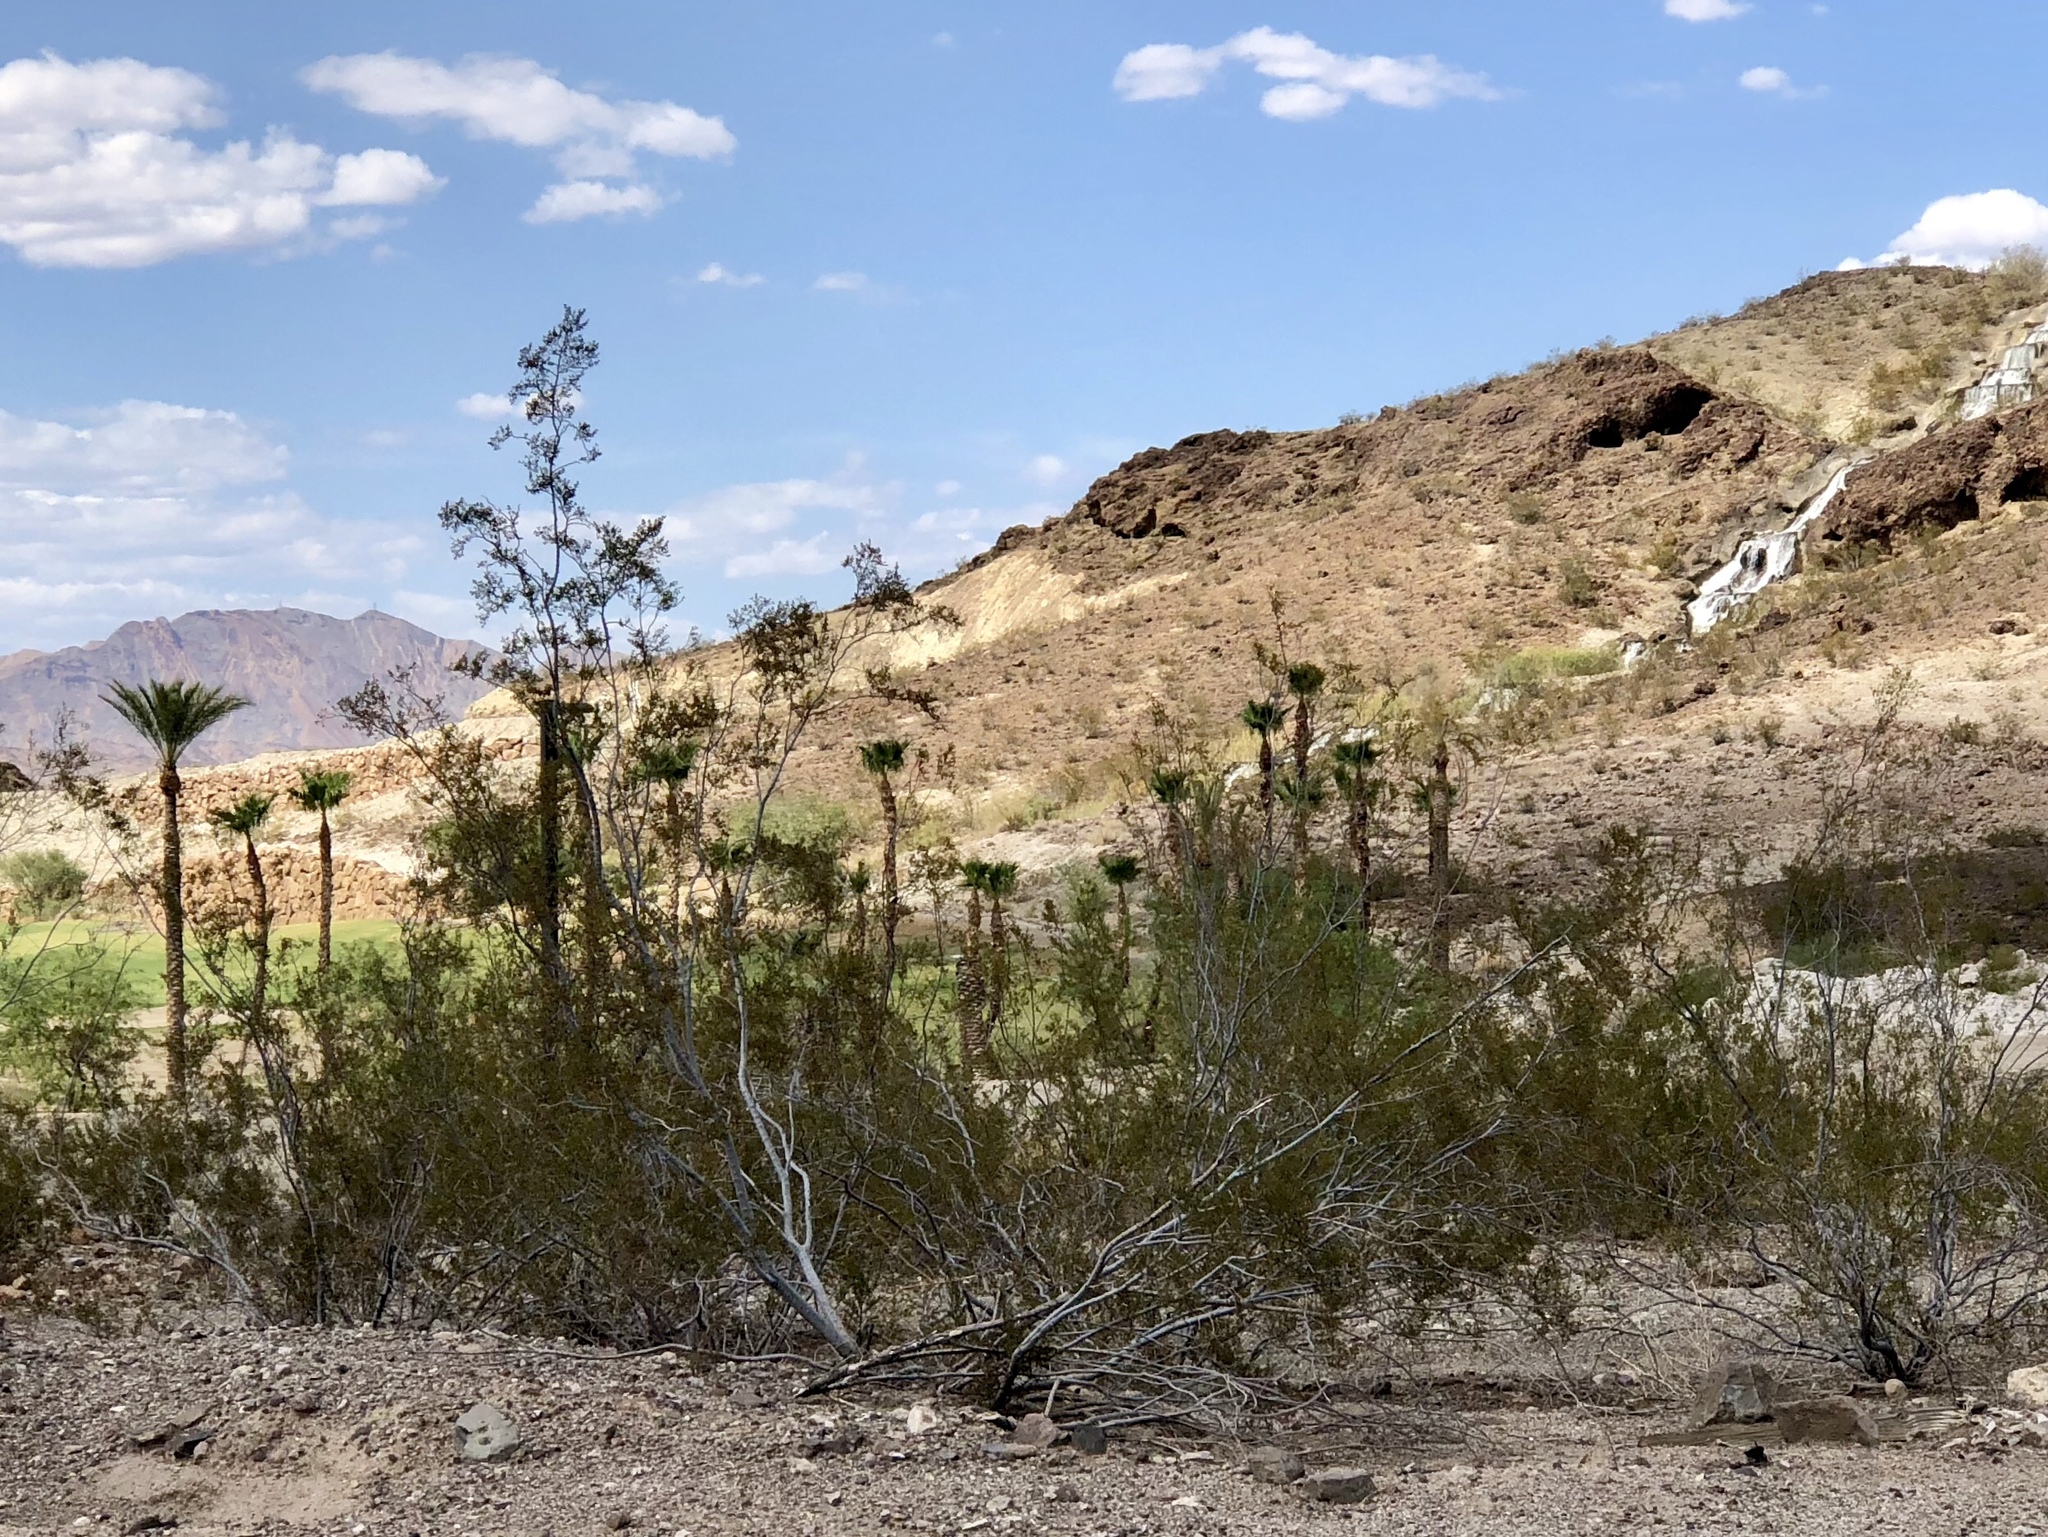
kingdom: Plantae
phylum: Tracheophyta
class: Magnoliopsida
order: Zygophyllales
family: Zygophyllaceae
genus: Larrea
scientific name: Larrea tridentata
